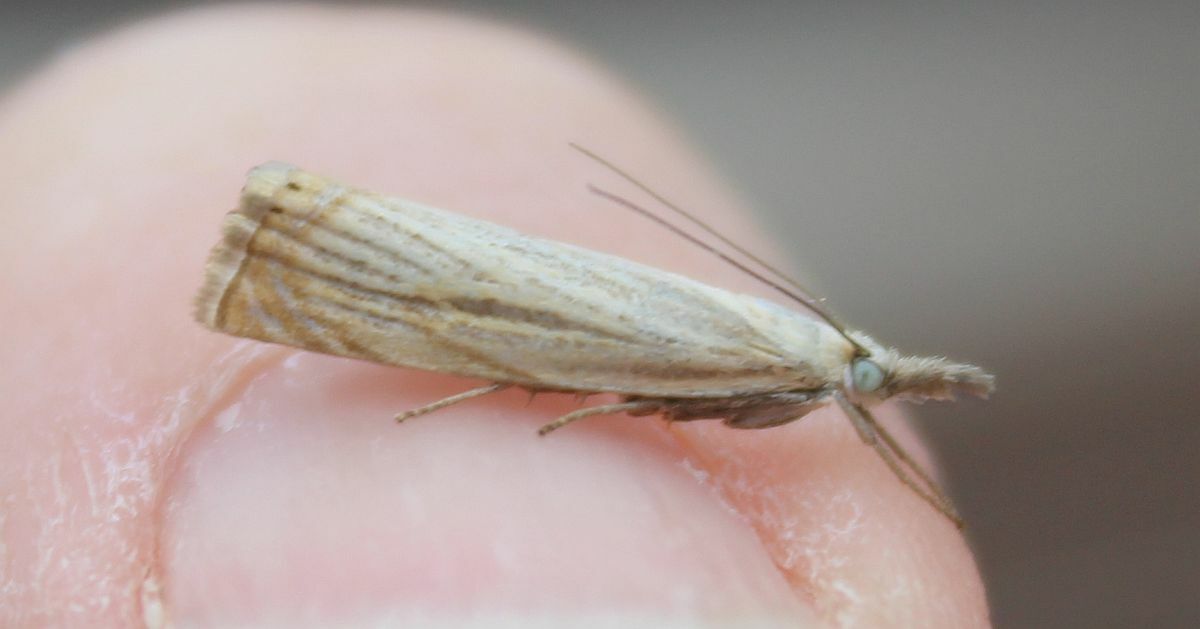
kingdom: Animalia
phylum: Arthropoda
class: Insecta
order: Lepidoptera
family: Crambidae
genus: Chrysoteuchia
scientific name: Chrysoteuchia culmella
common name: Garden grass-veneer
